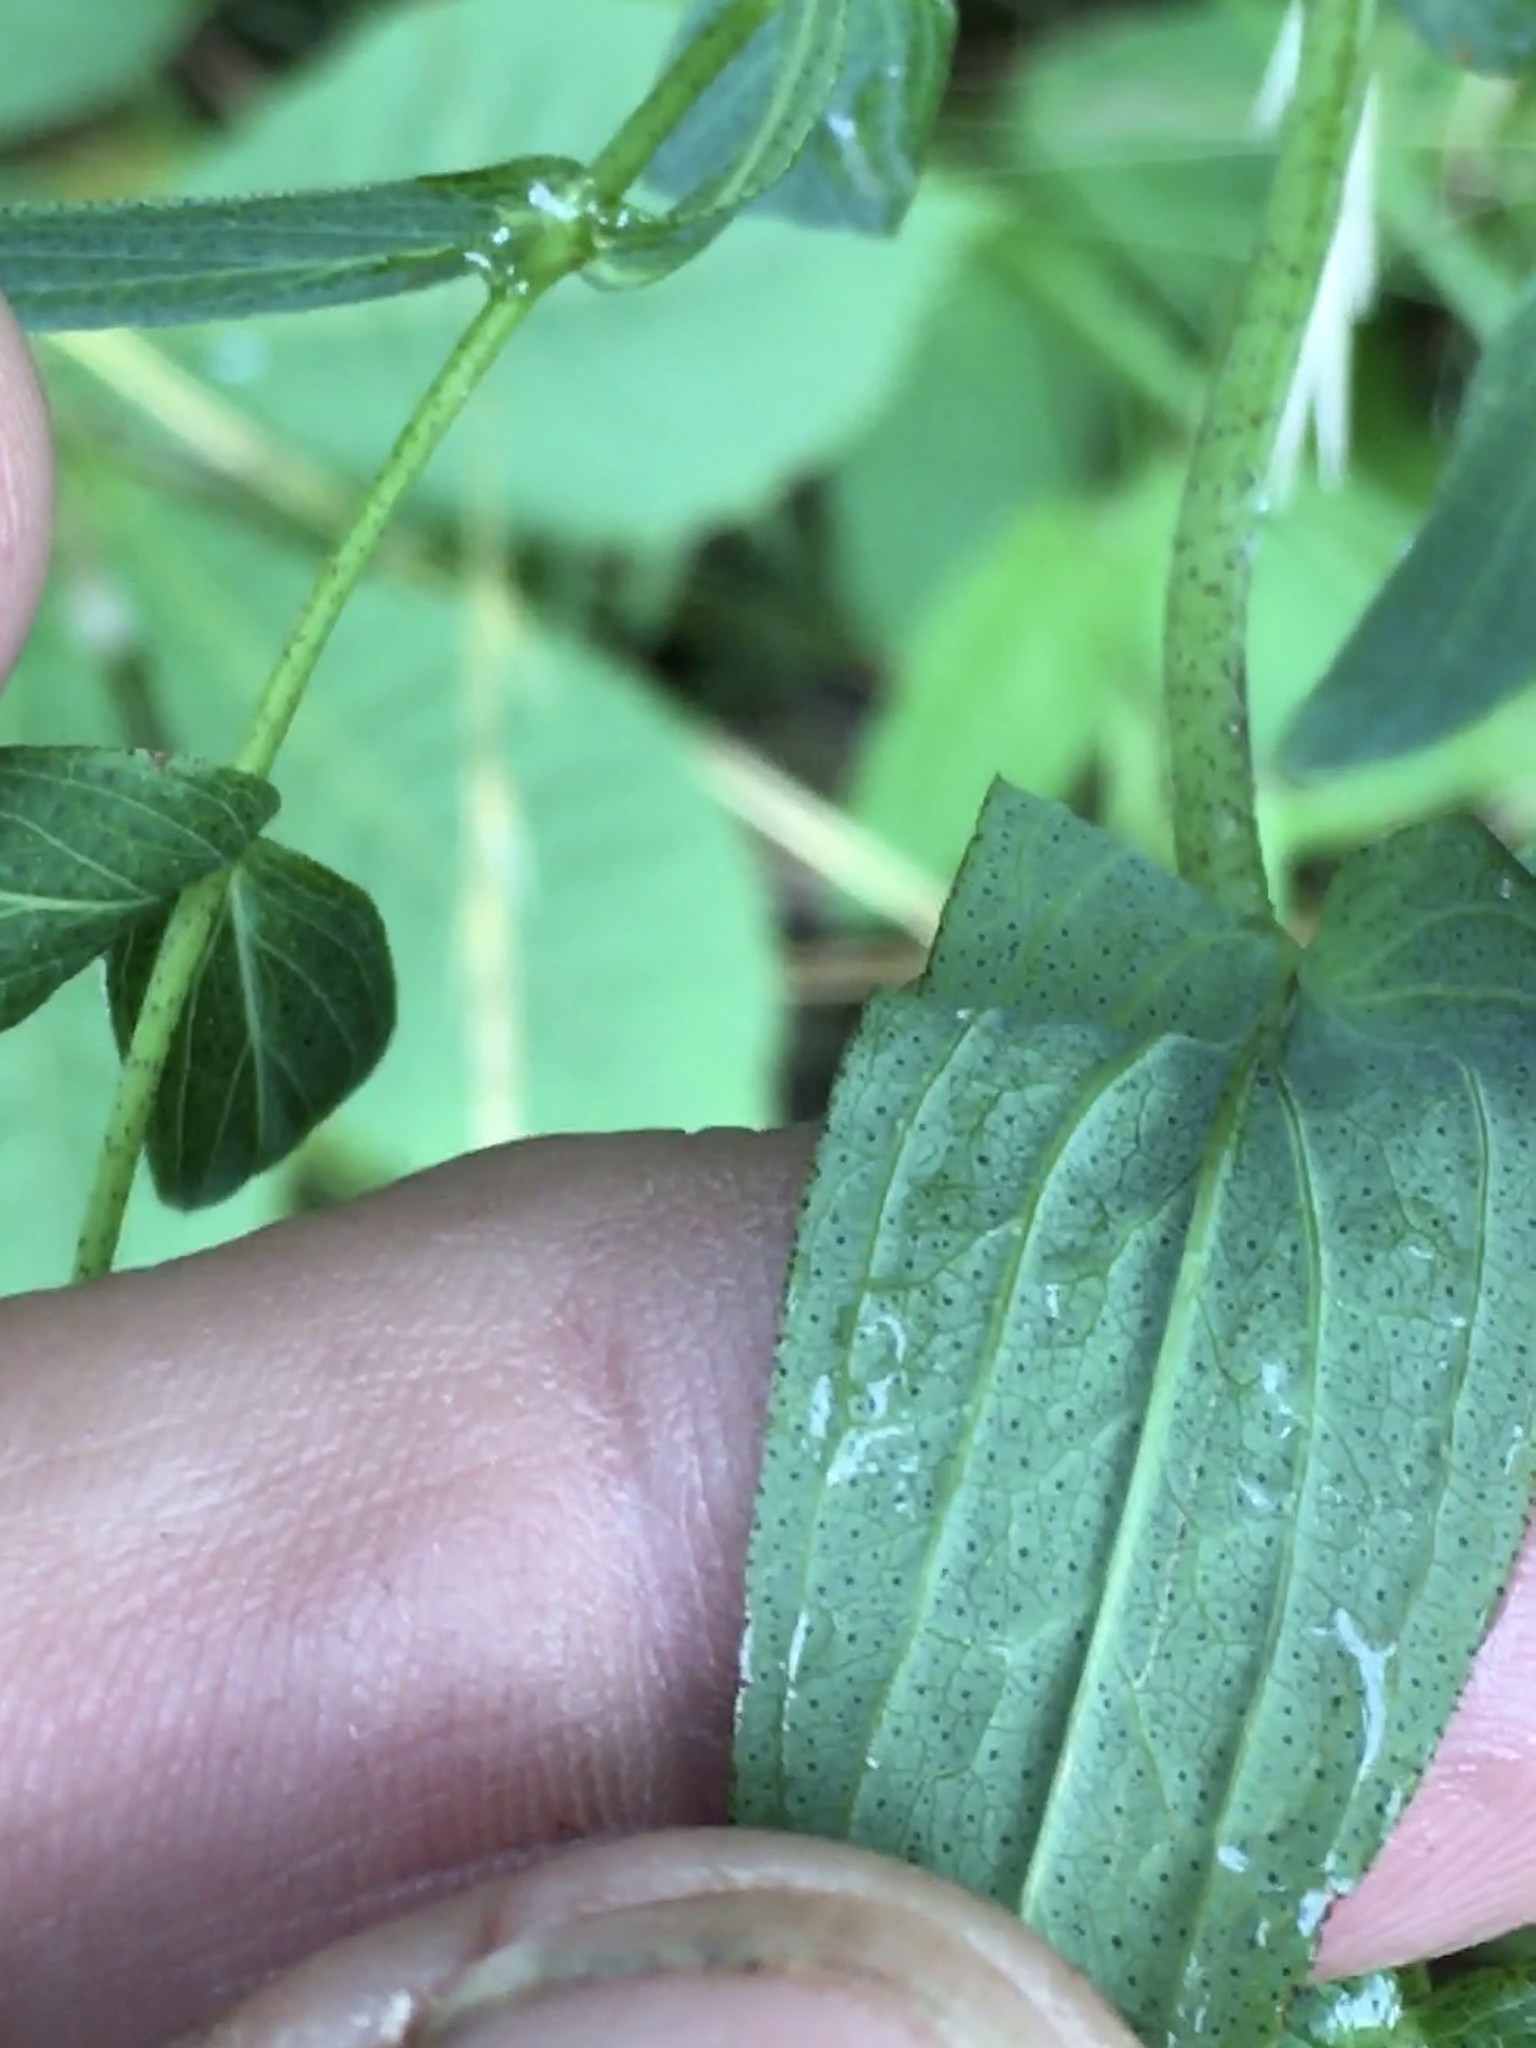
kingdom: Plantae
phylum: Tracheophyta
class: Magnoliopsida
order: Malpighiales
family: Hypericaceae
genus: Hypericum
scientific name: Hypericum punctatum
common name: Spotted st. john's-wort
